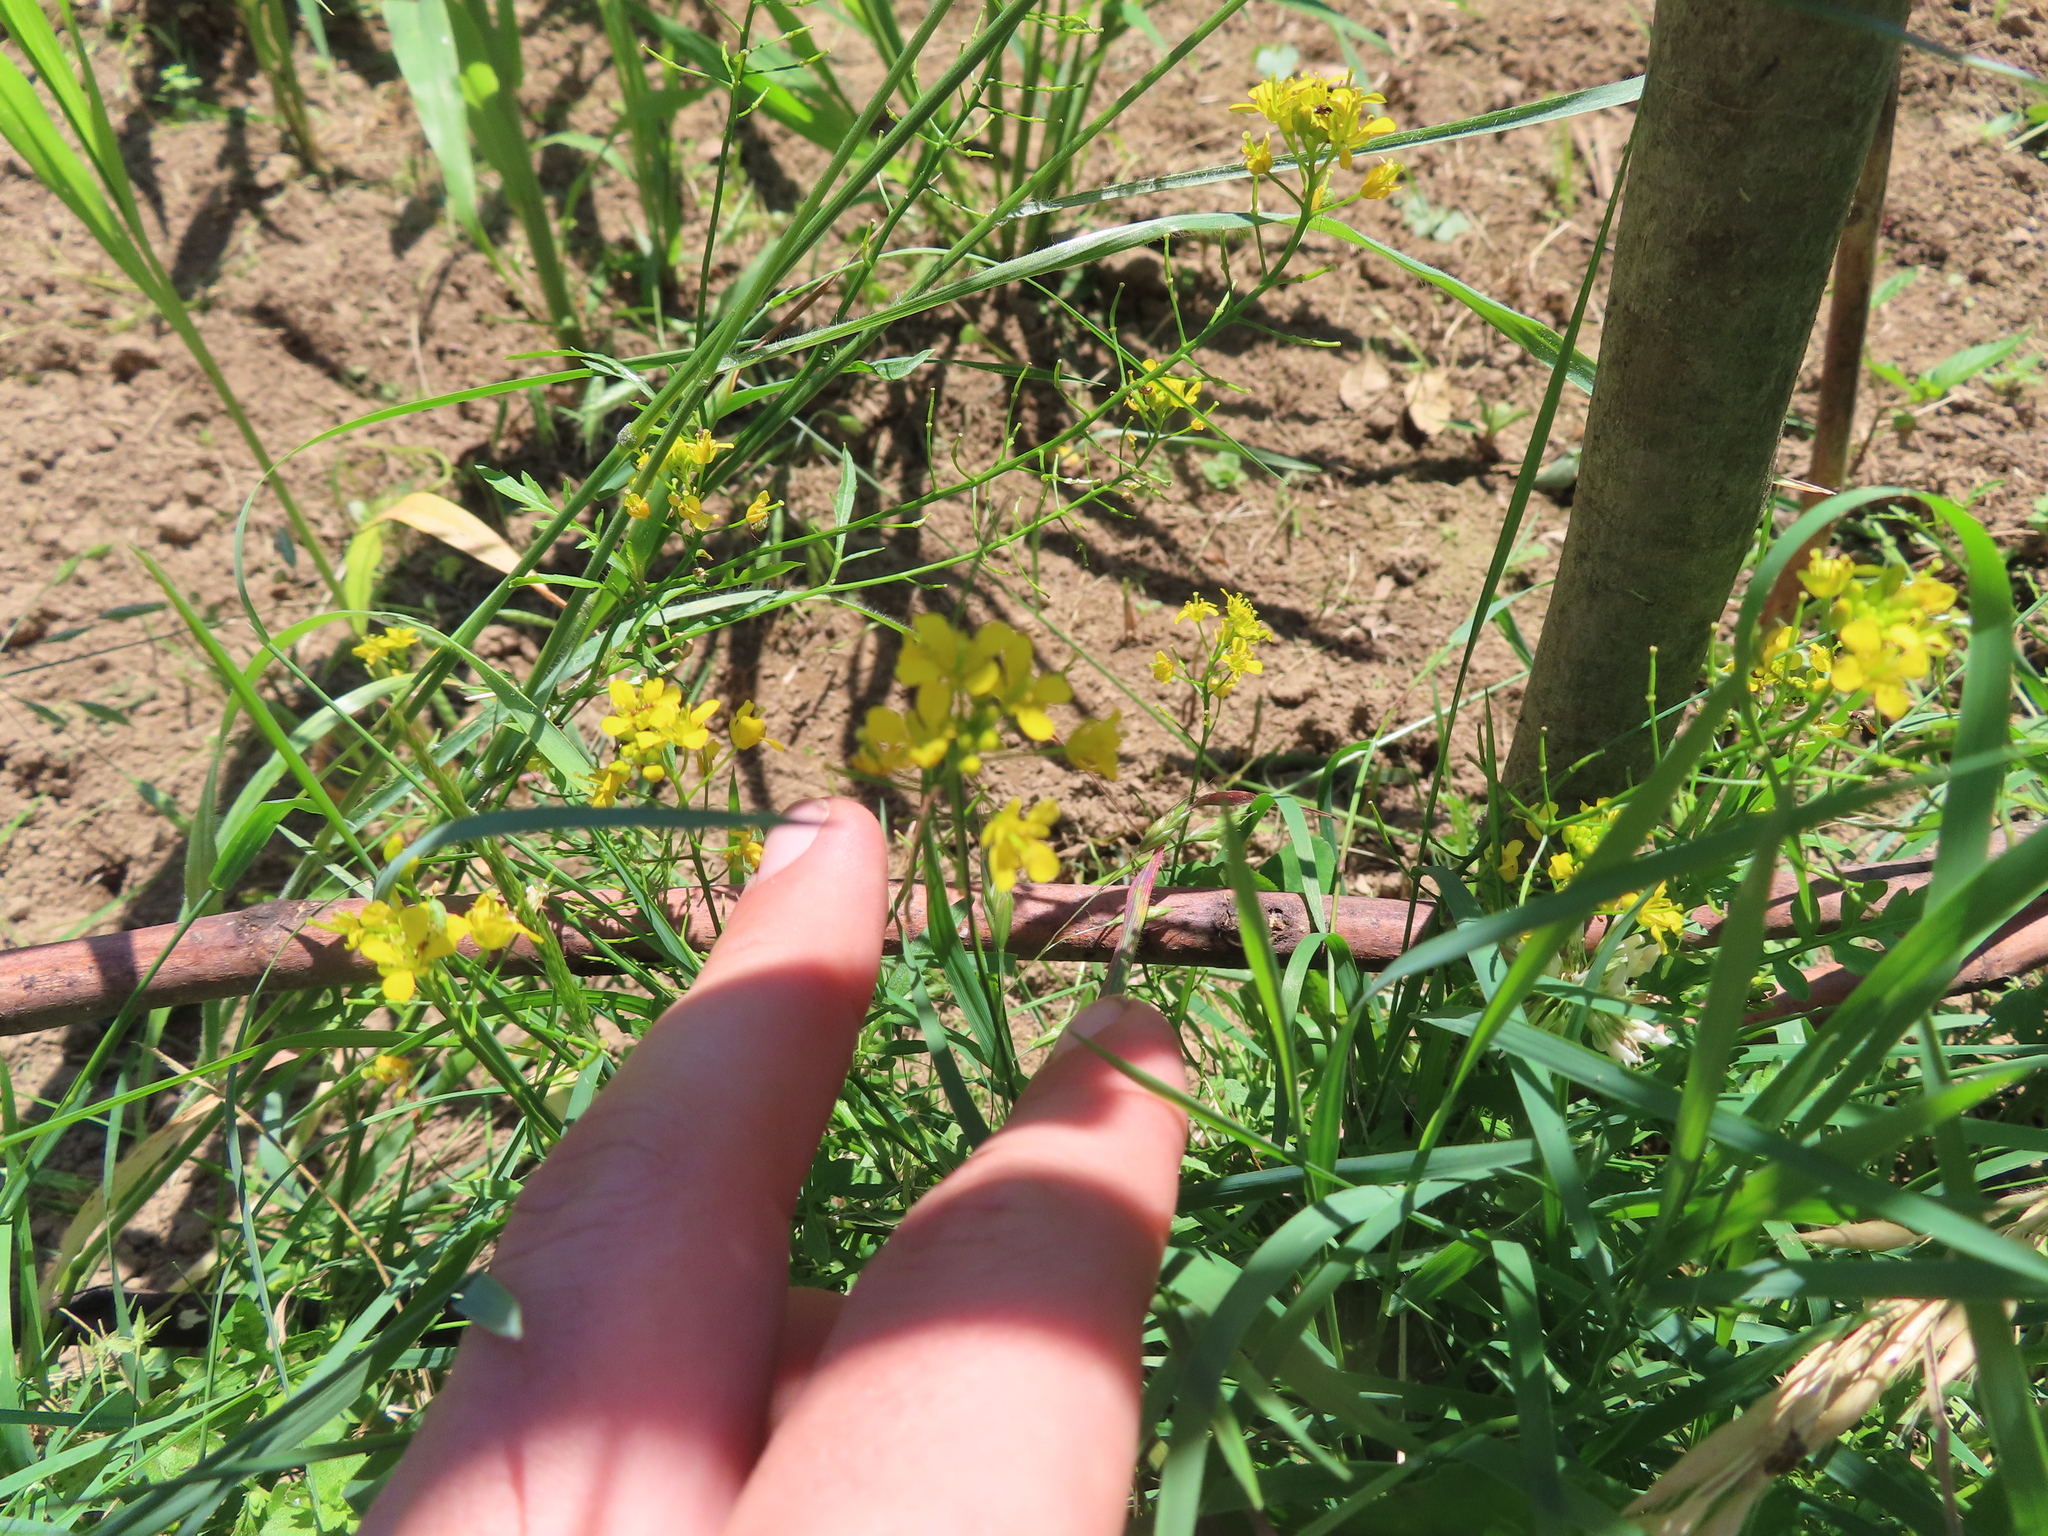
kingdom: Plantae
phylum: Tracheophyta
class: Magnoliopsida
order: Brassicales
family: Brassicaceae
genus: Rorippa
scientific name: Rorippa sylvestris
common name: Creeping yellowcress
